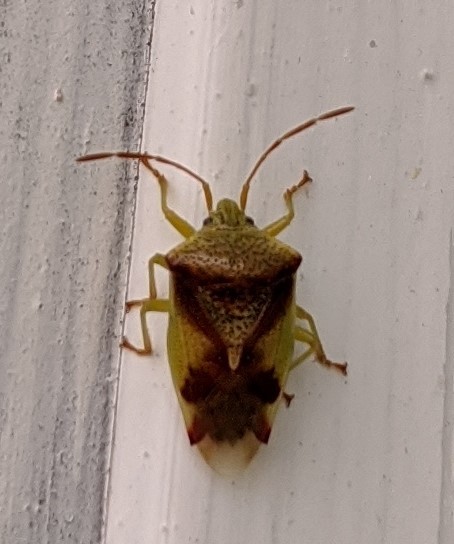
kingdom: Animalia
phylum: Arthropoda
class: Insecta
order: Hemiptera
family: Acanthosomatidae
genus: Elasmostethus
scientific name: Elasmostethus cruciatus
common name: Red-cross shield bug
